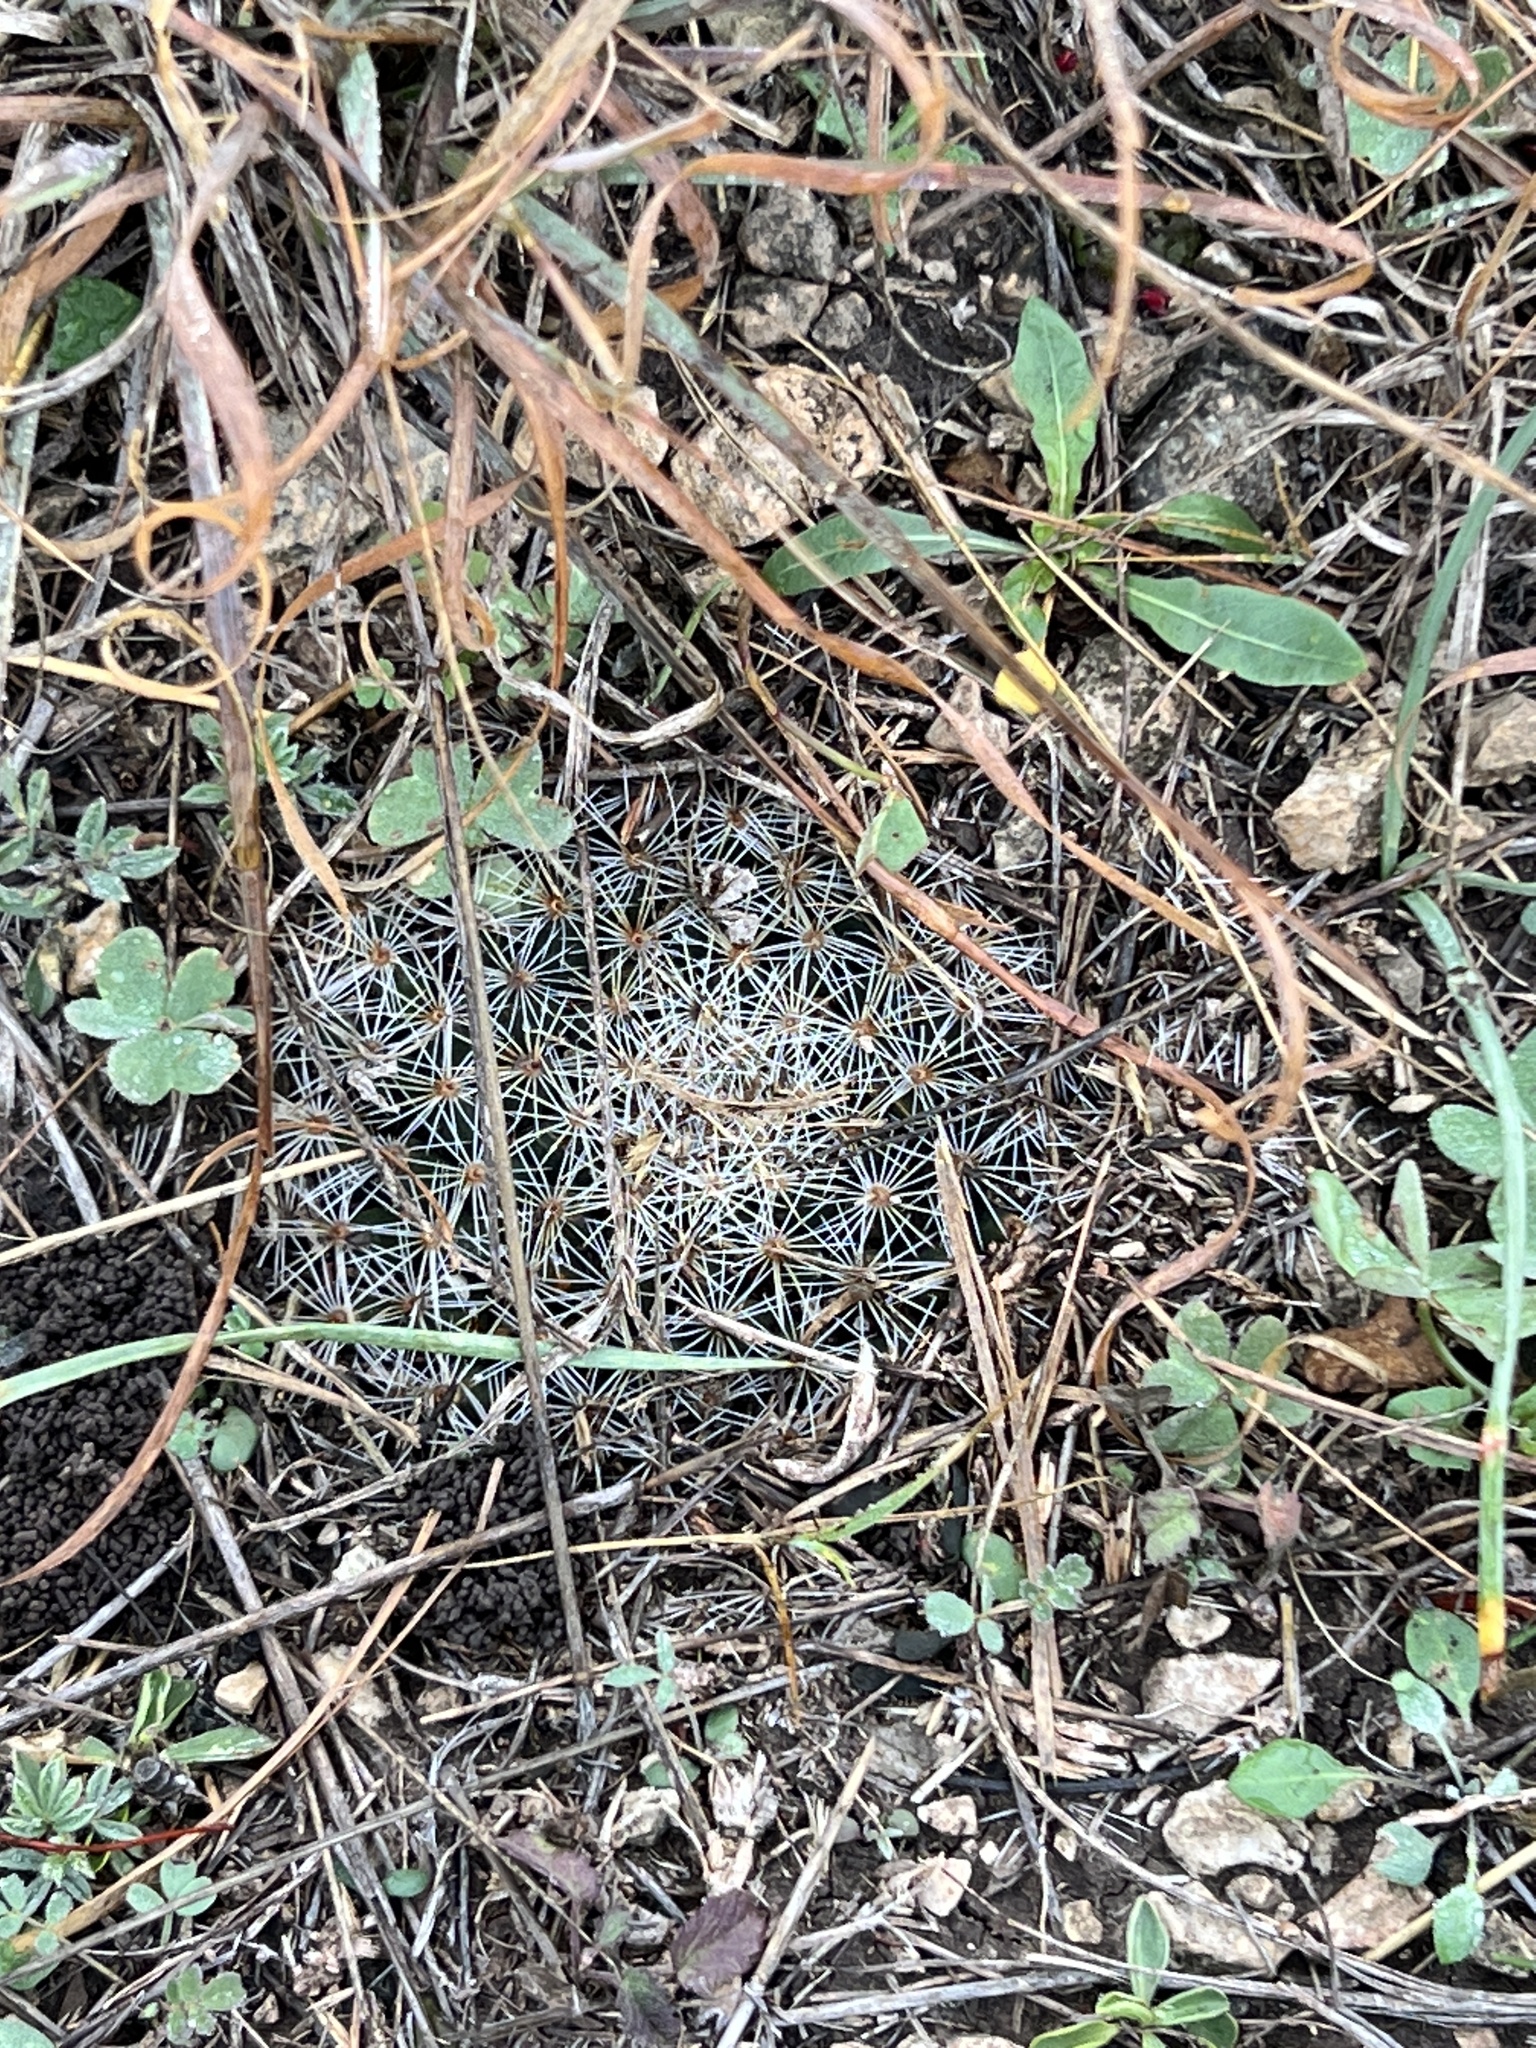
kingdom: Plantae
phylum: Tracheophyta
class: Magnoliopsida
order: Caryophyllales
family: Cactaceae
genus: Mammillaria
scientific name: Mammillaria heyderi
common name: Little nipple cactus
